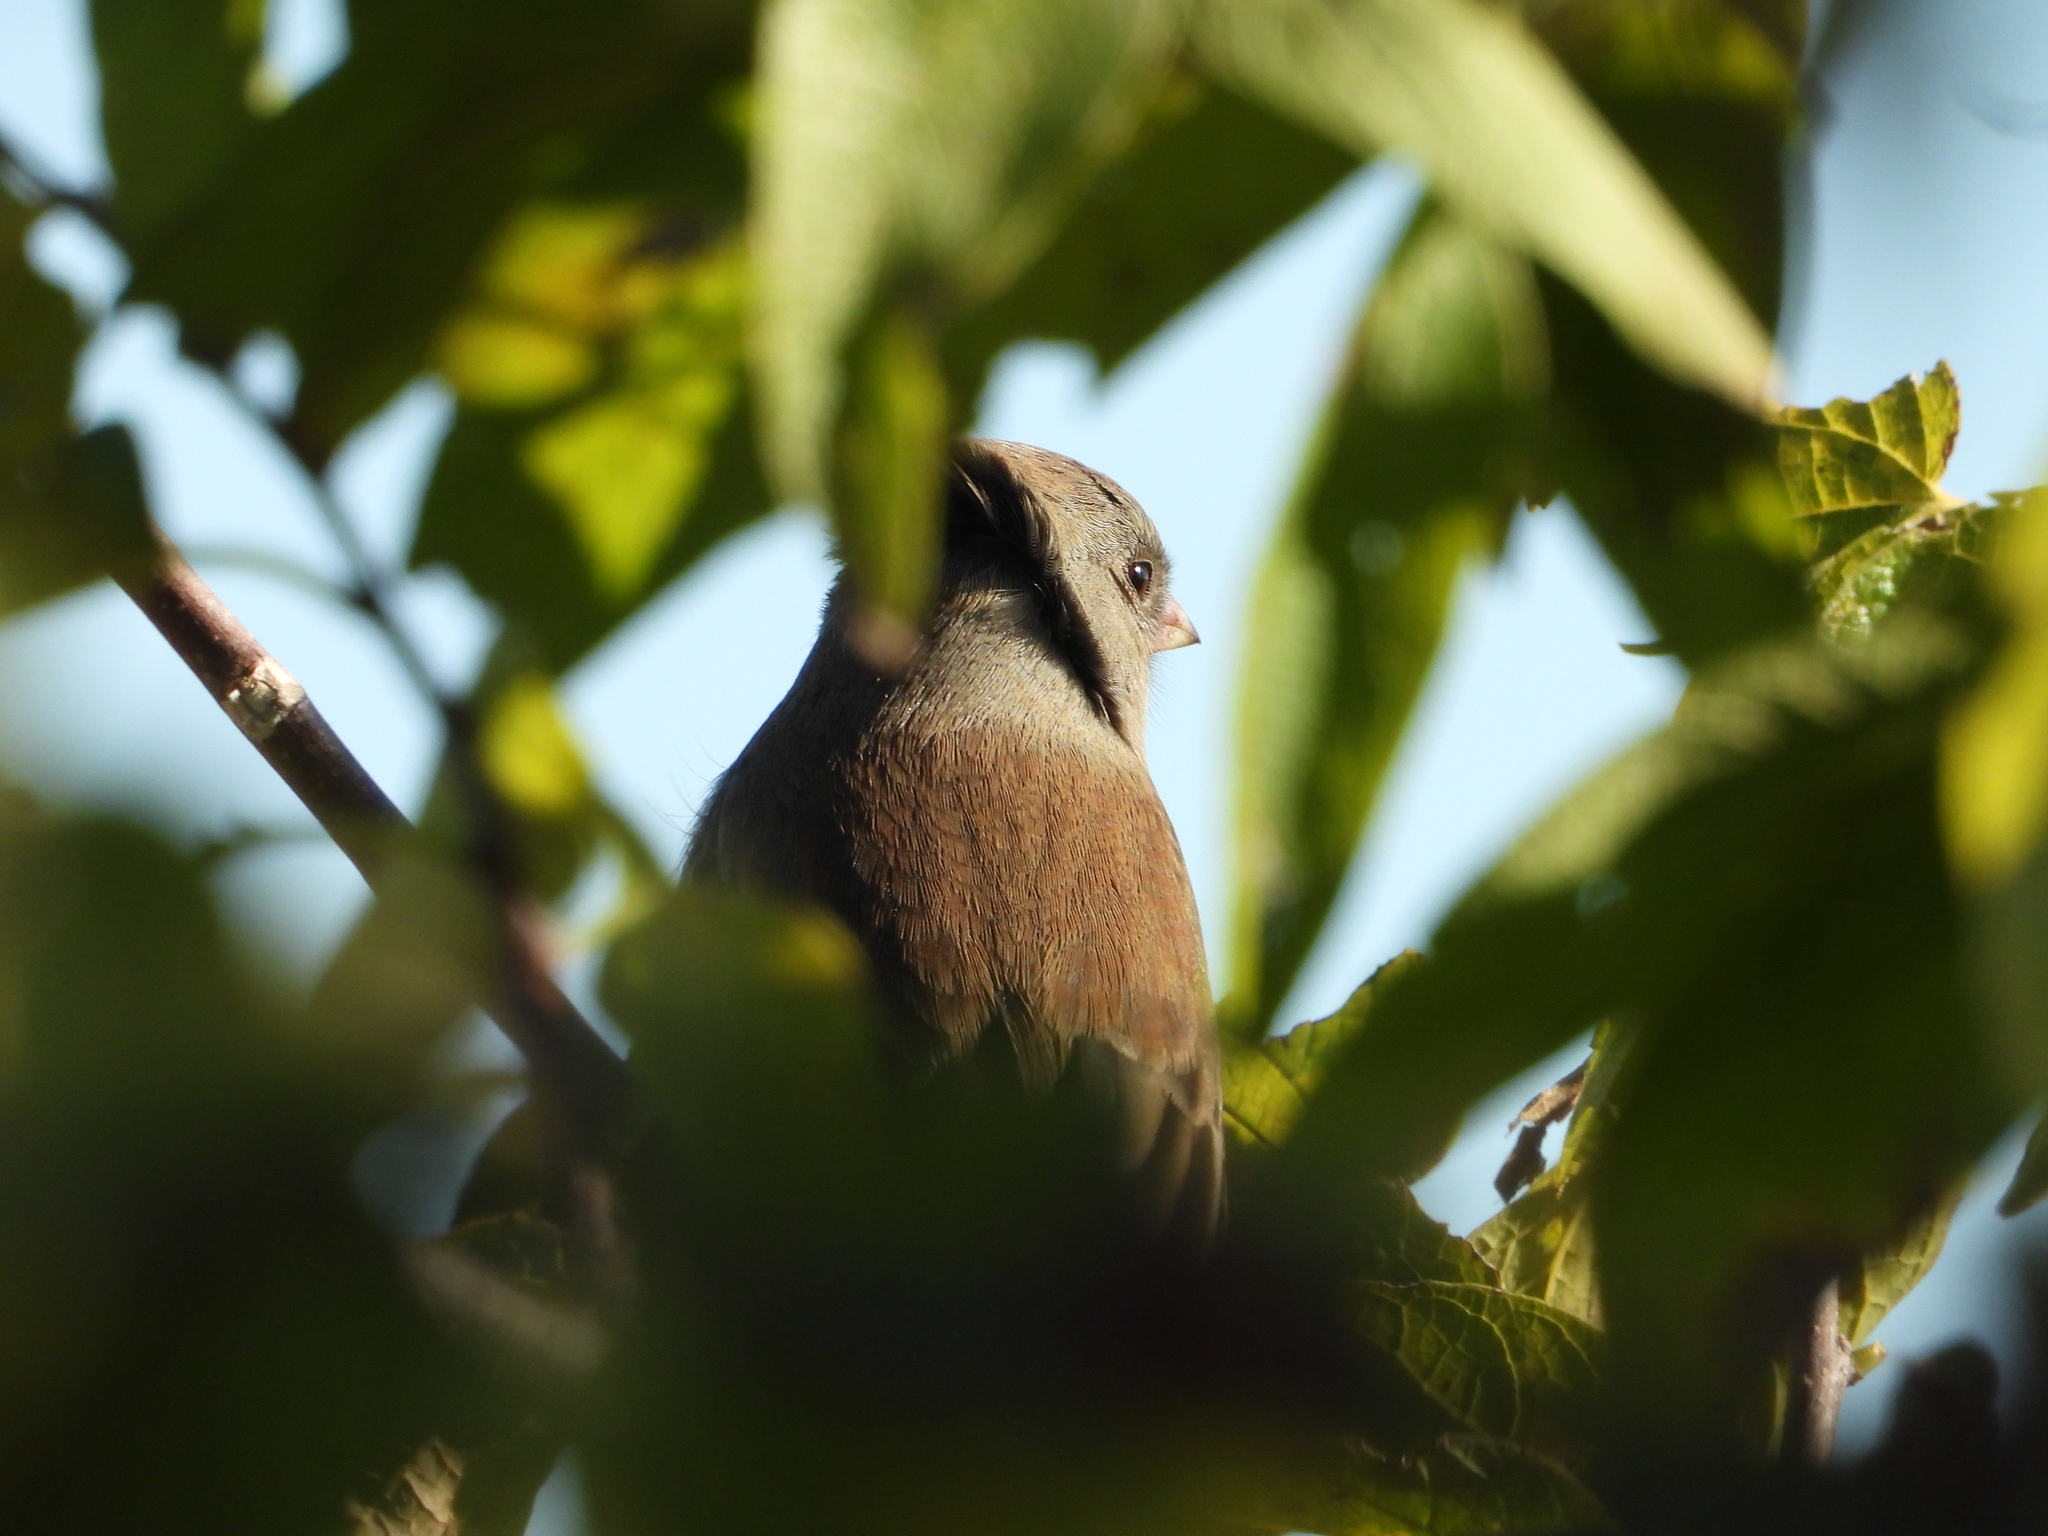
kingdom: Animalia
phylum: Chordata
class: Aves
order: Passeriformes
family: Passerellidae
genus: Junco
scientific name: Junco hyemalis
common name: Dark-eyed junco
